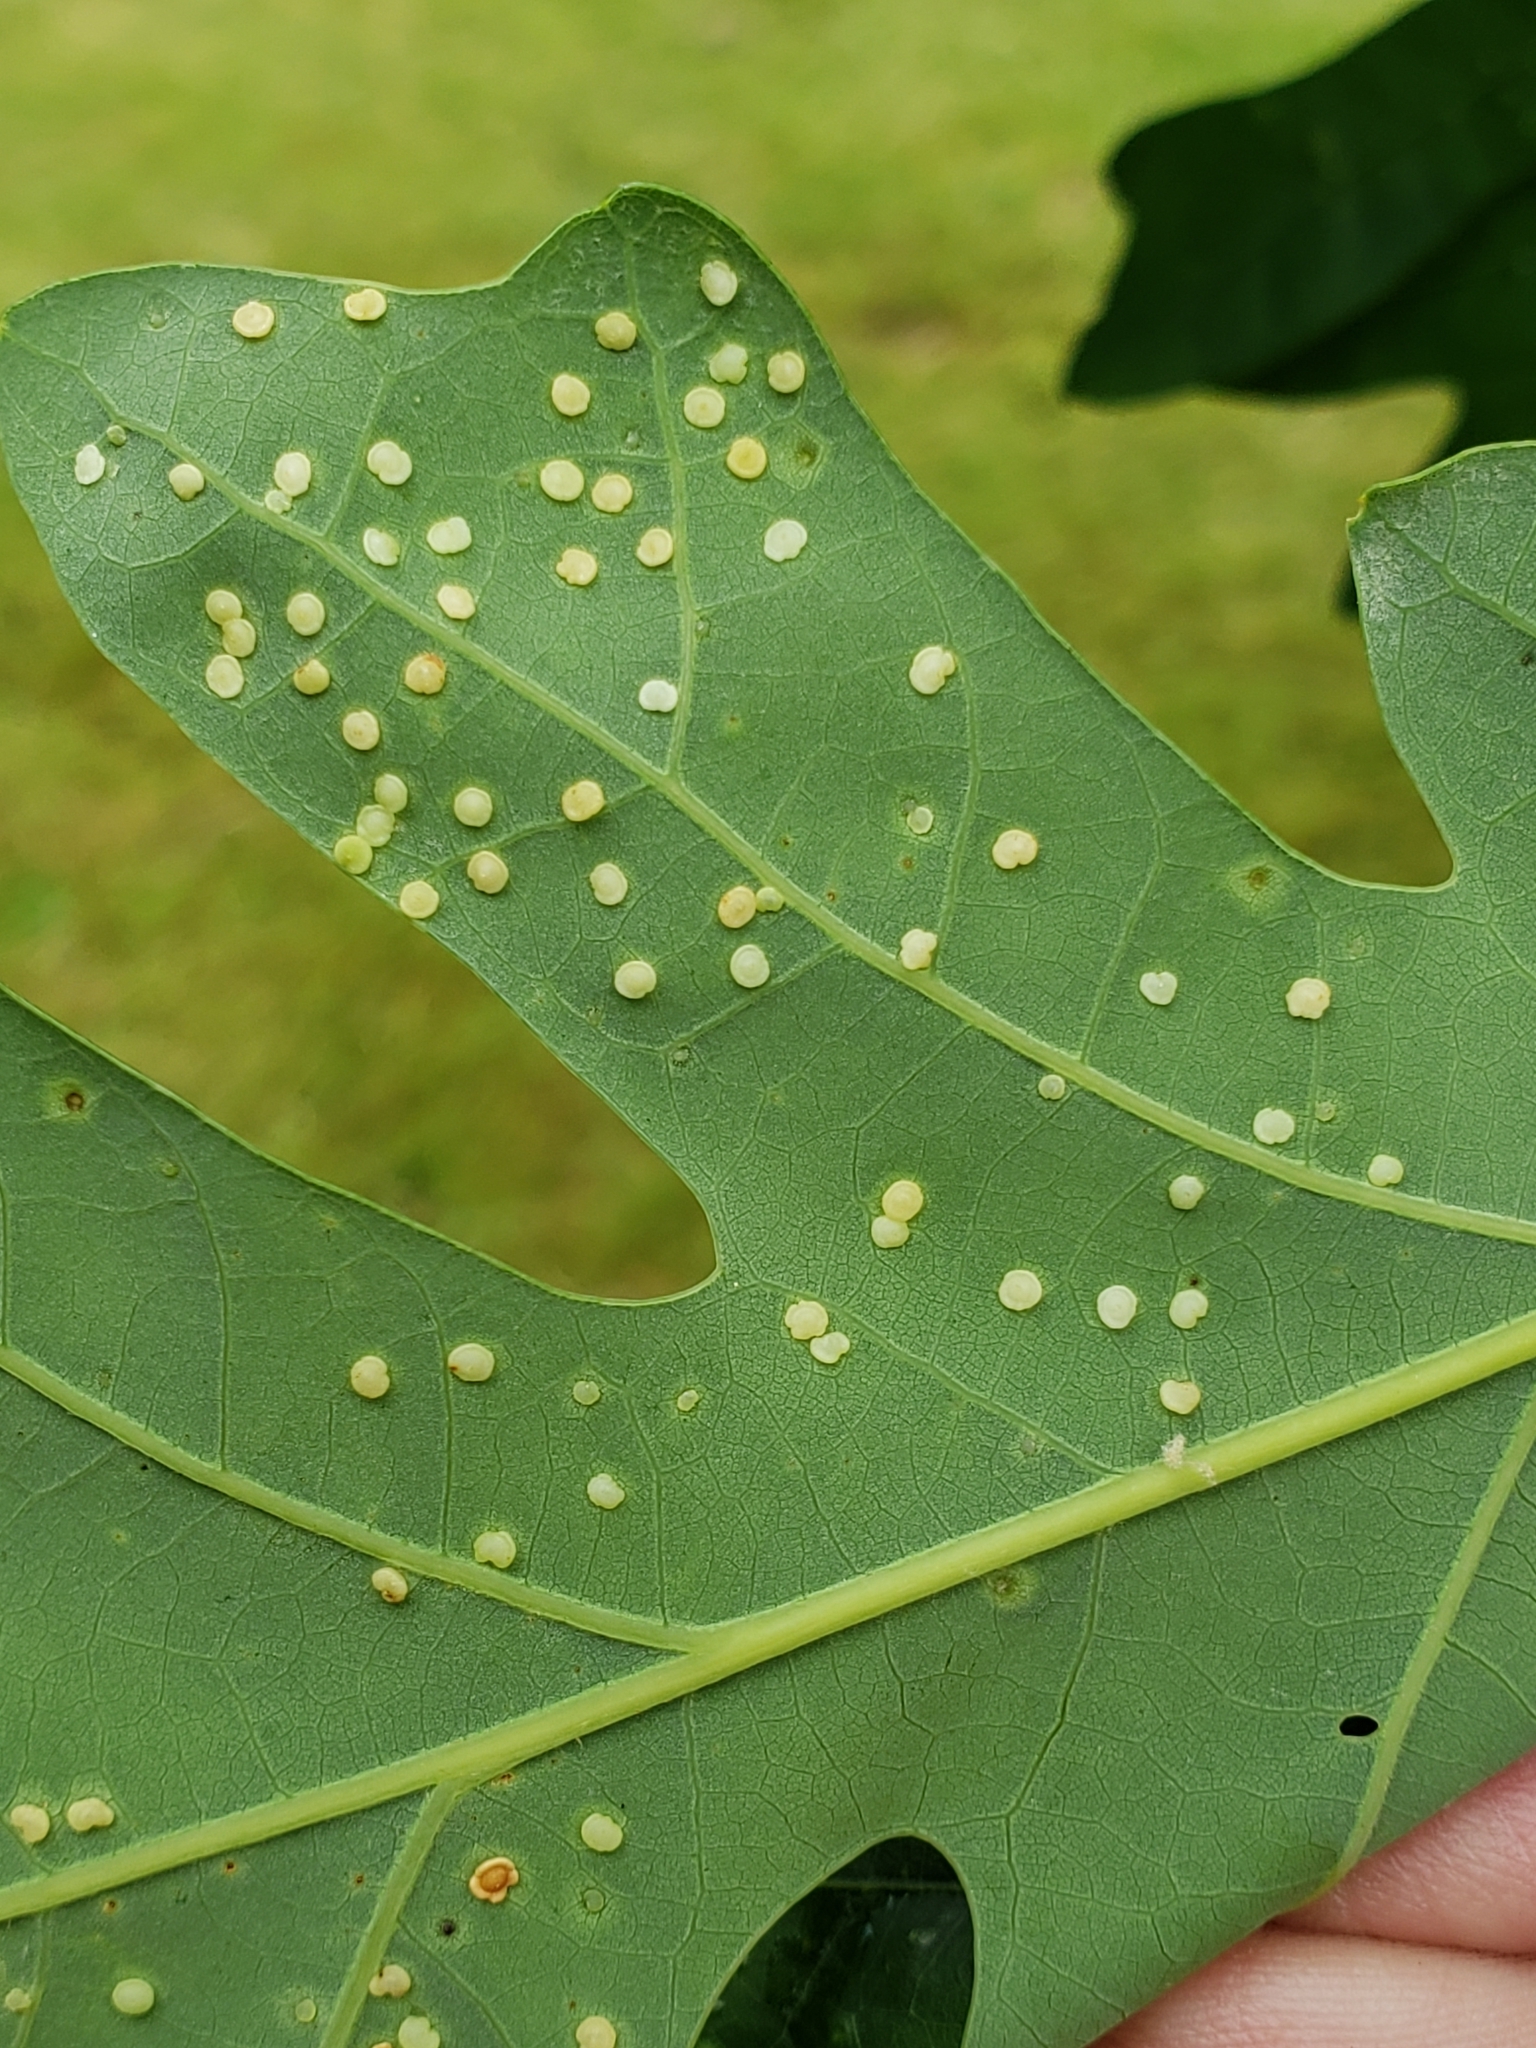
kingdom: Animalia
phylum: Arthropoda
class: Insecta
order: Hymenoptera
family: Cynipidae
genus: Neuroterus
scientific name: Neuroterus
